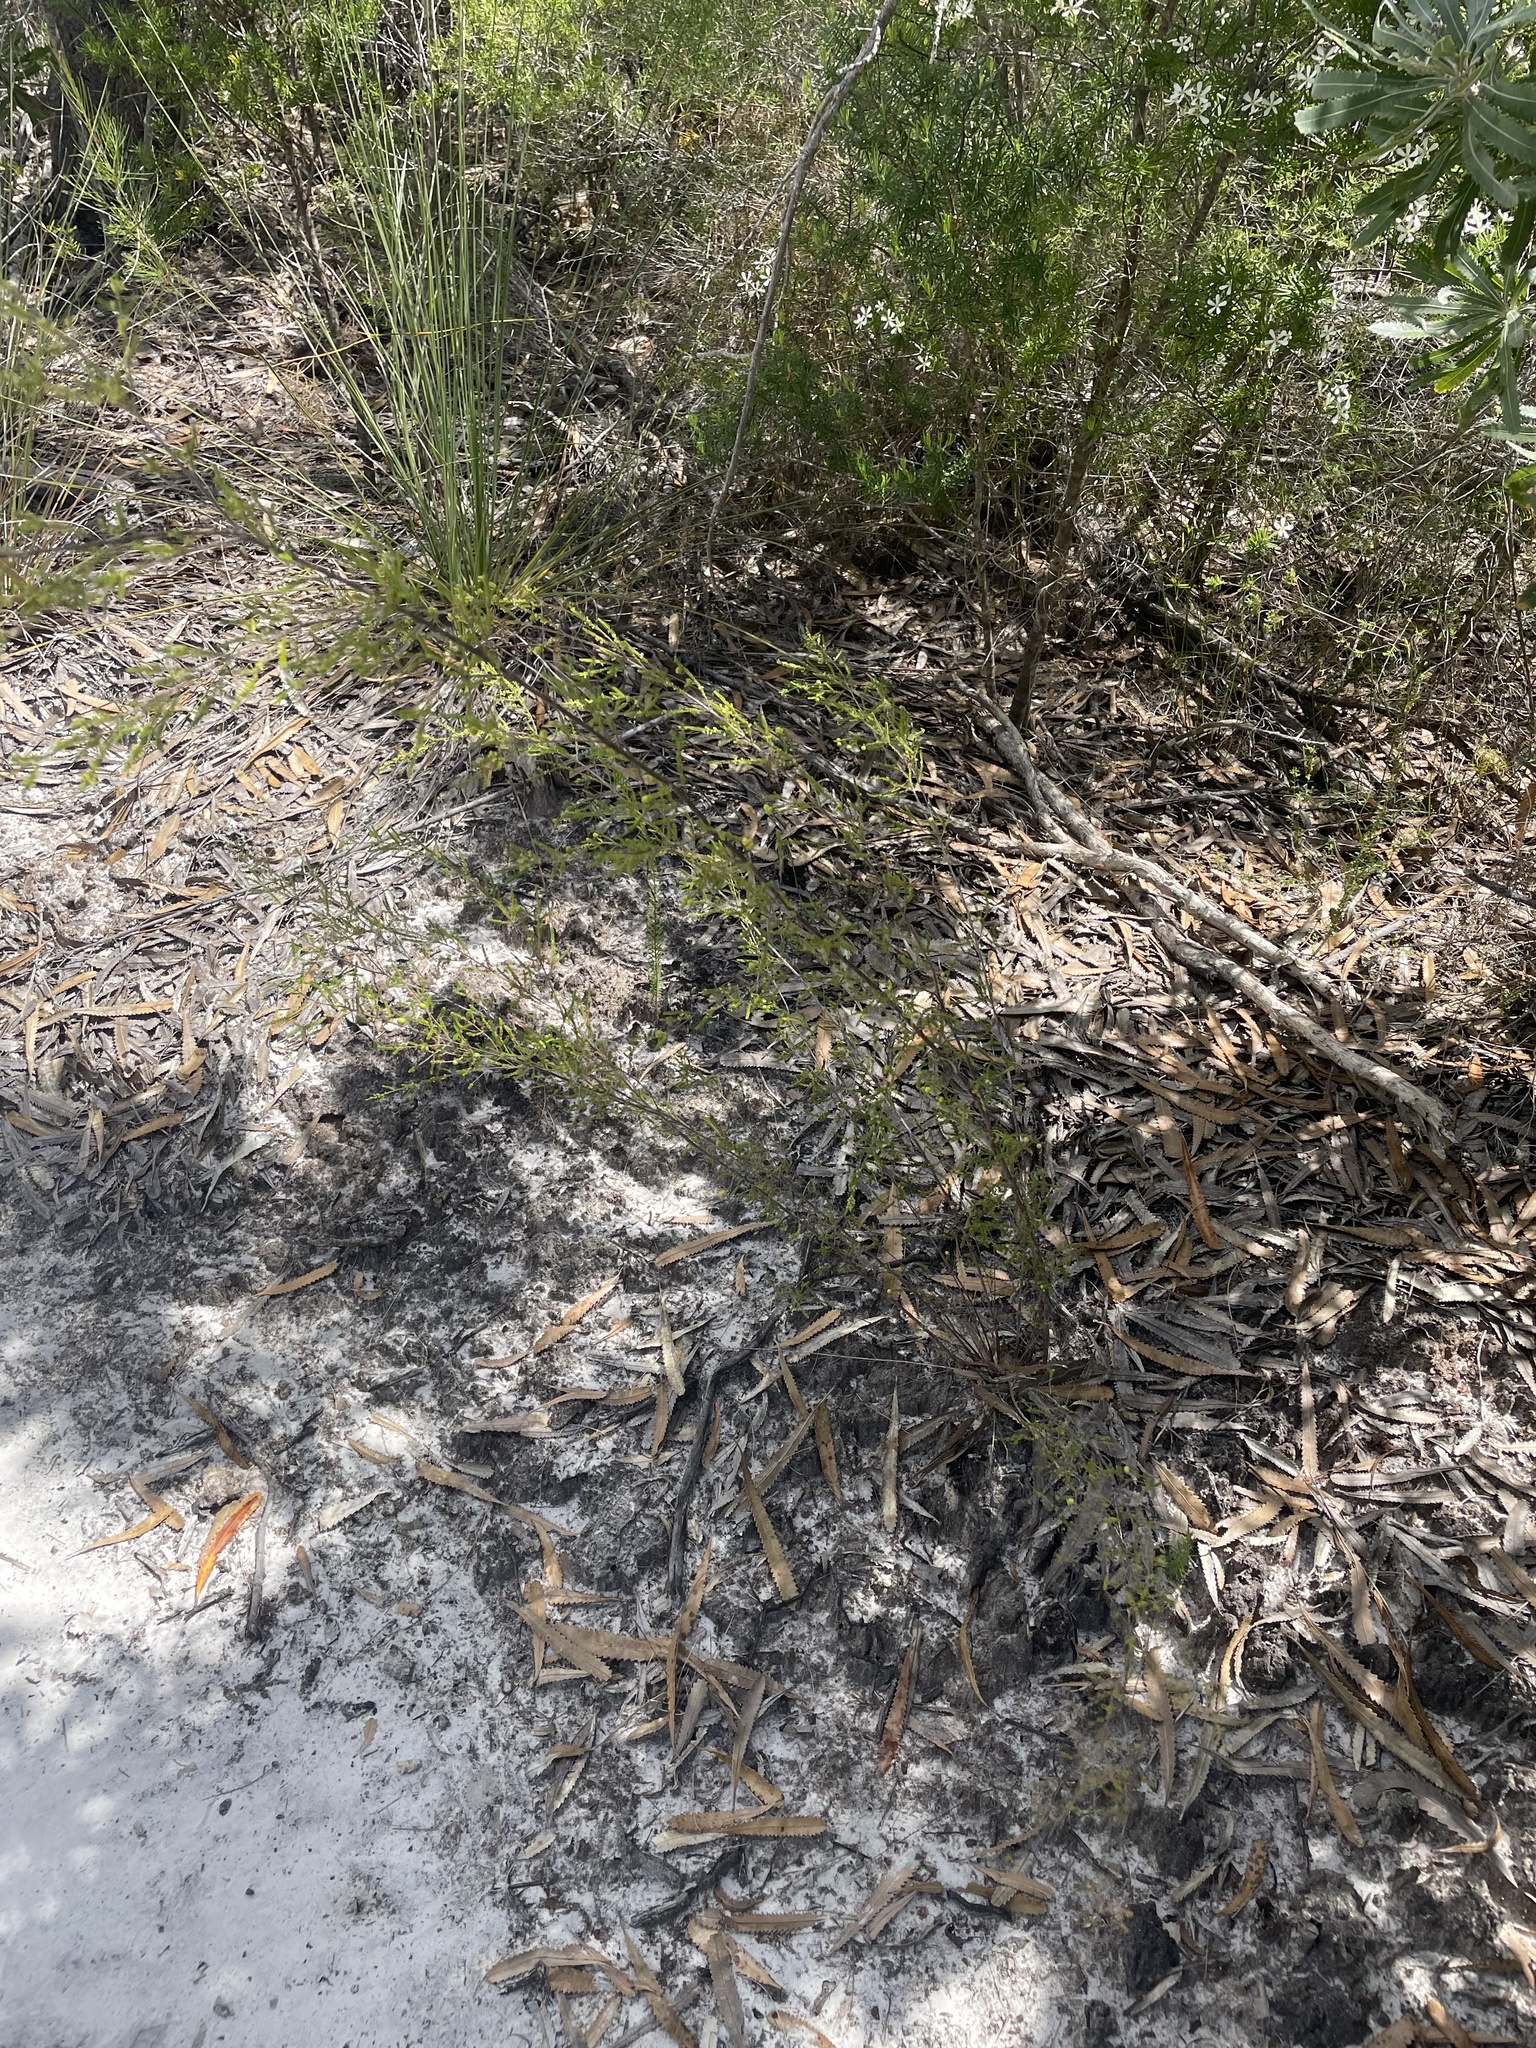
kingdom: Plantae
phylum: Tracheophyta
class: Magnoliopsida
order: Myrtales
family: Myrtaceae
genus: Micromyrtus
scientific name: Micromyrtus littoralis
